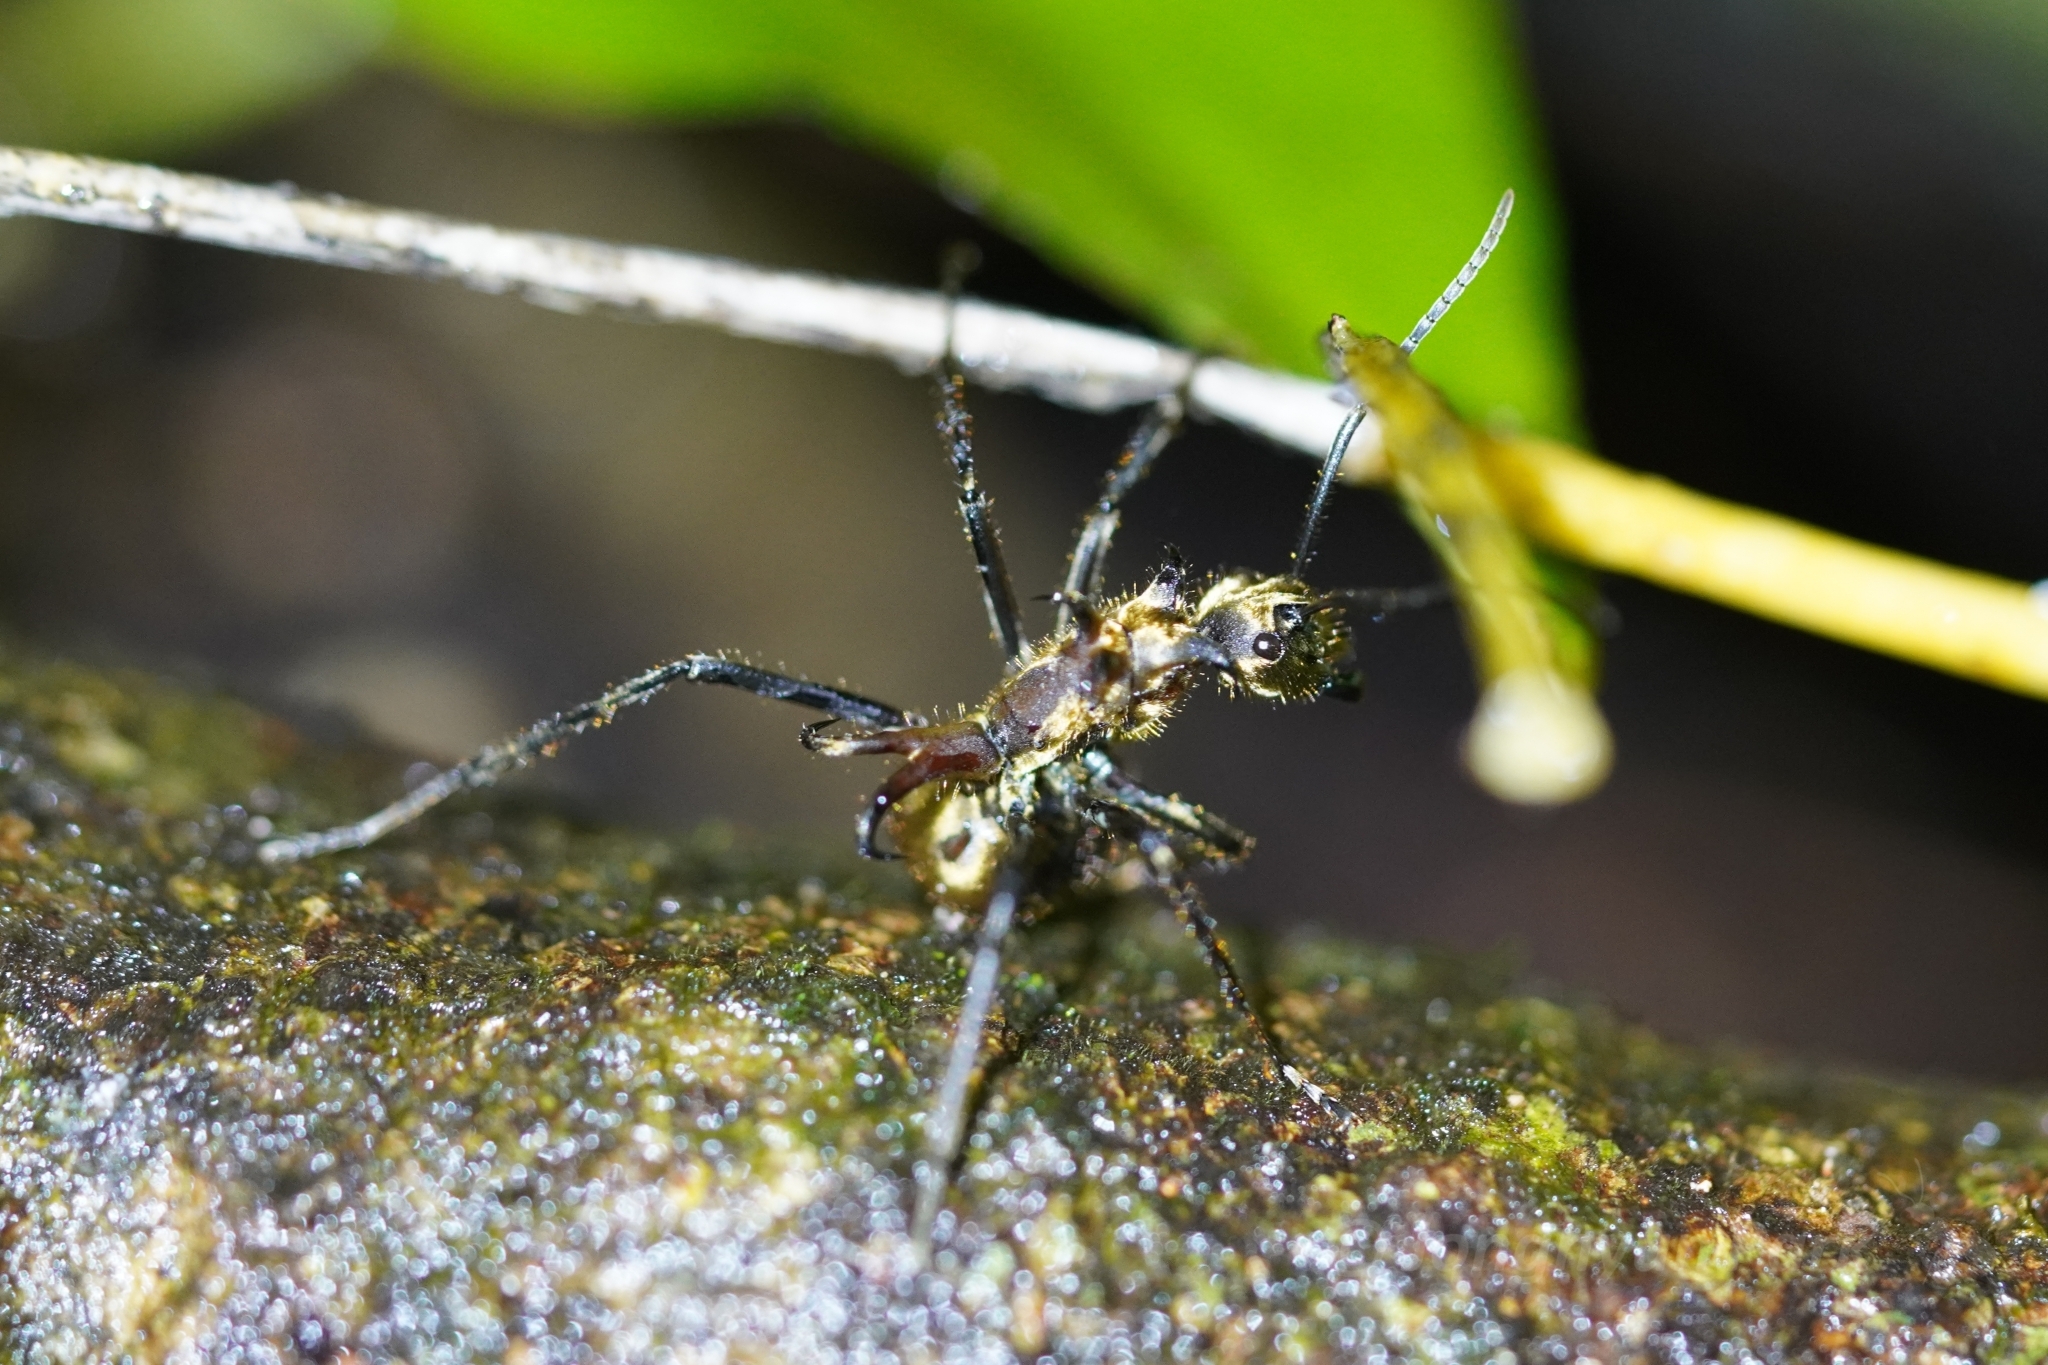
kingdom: Animalia
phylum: Arthropoda
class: Insecta
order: Hymenoptera
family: Formicidae
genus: Polyrhachis
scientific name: Polyrhachis ypsilon
